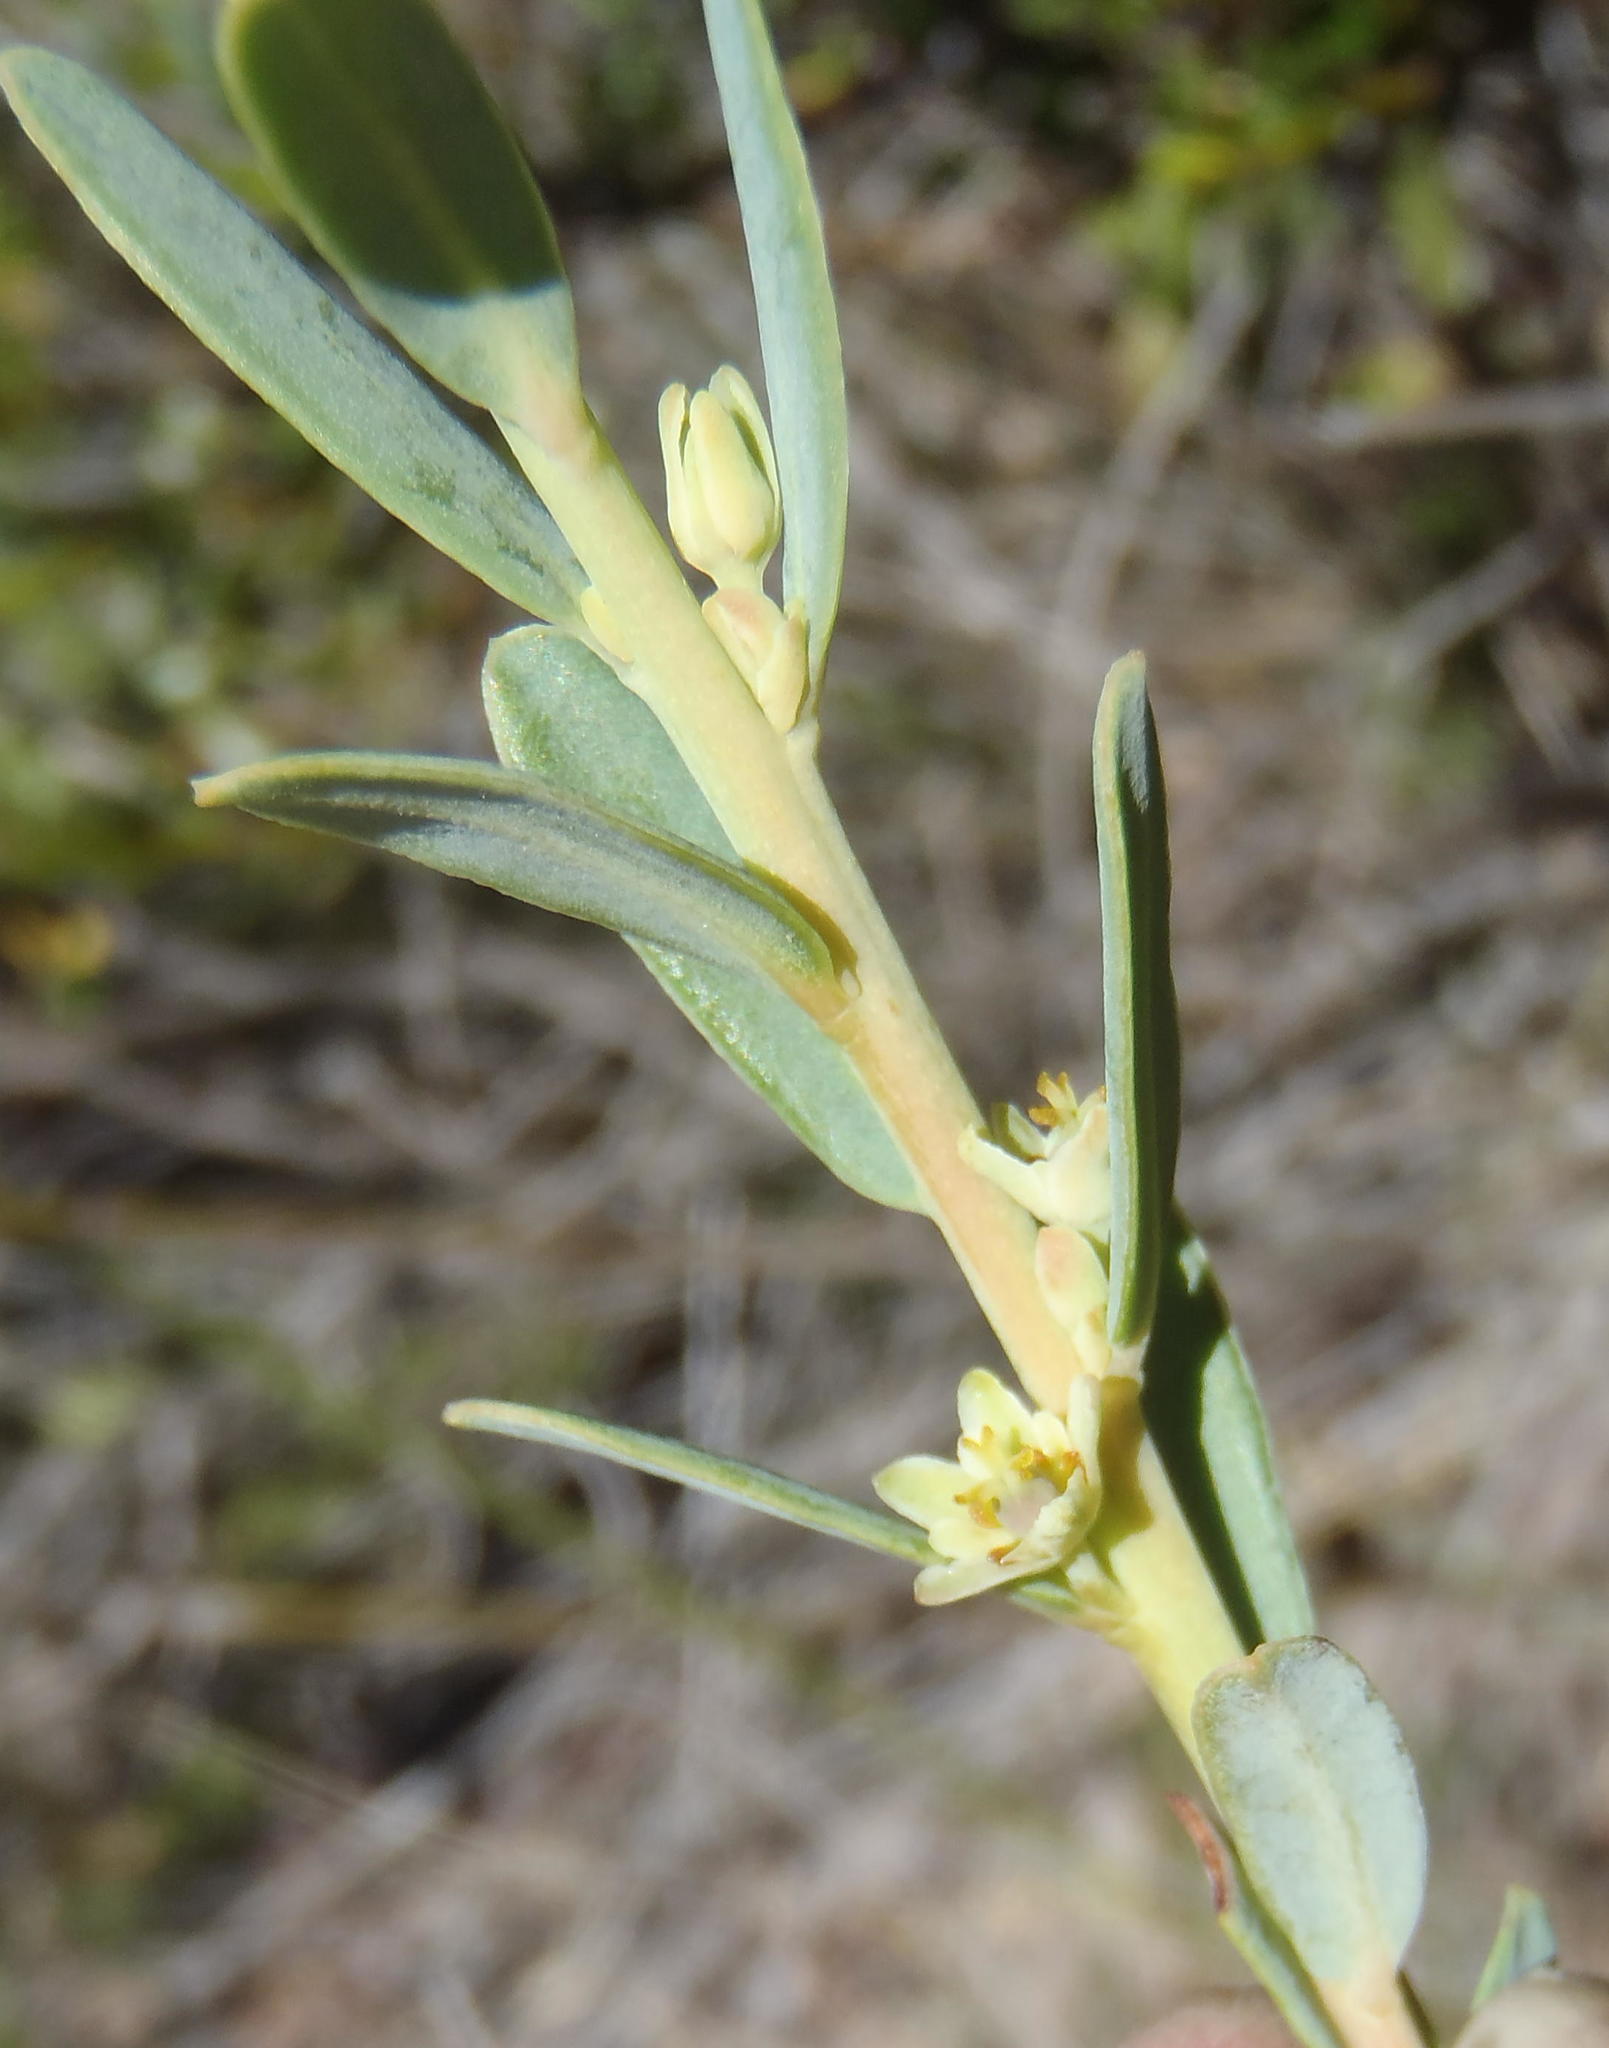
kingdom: Plantae
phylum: Tracheophyta
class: Magnoliopsida
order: Malpighiales
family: Peraceae
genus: Clutia
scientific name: Clutia laxa
